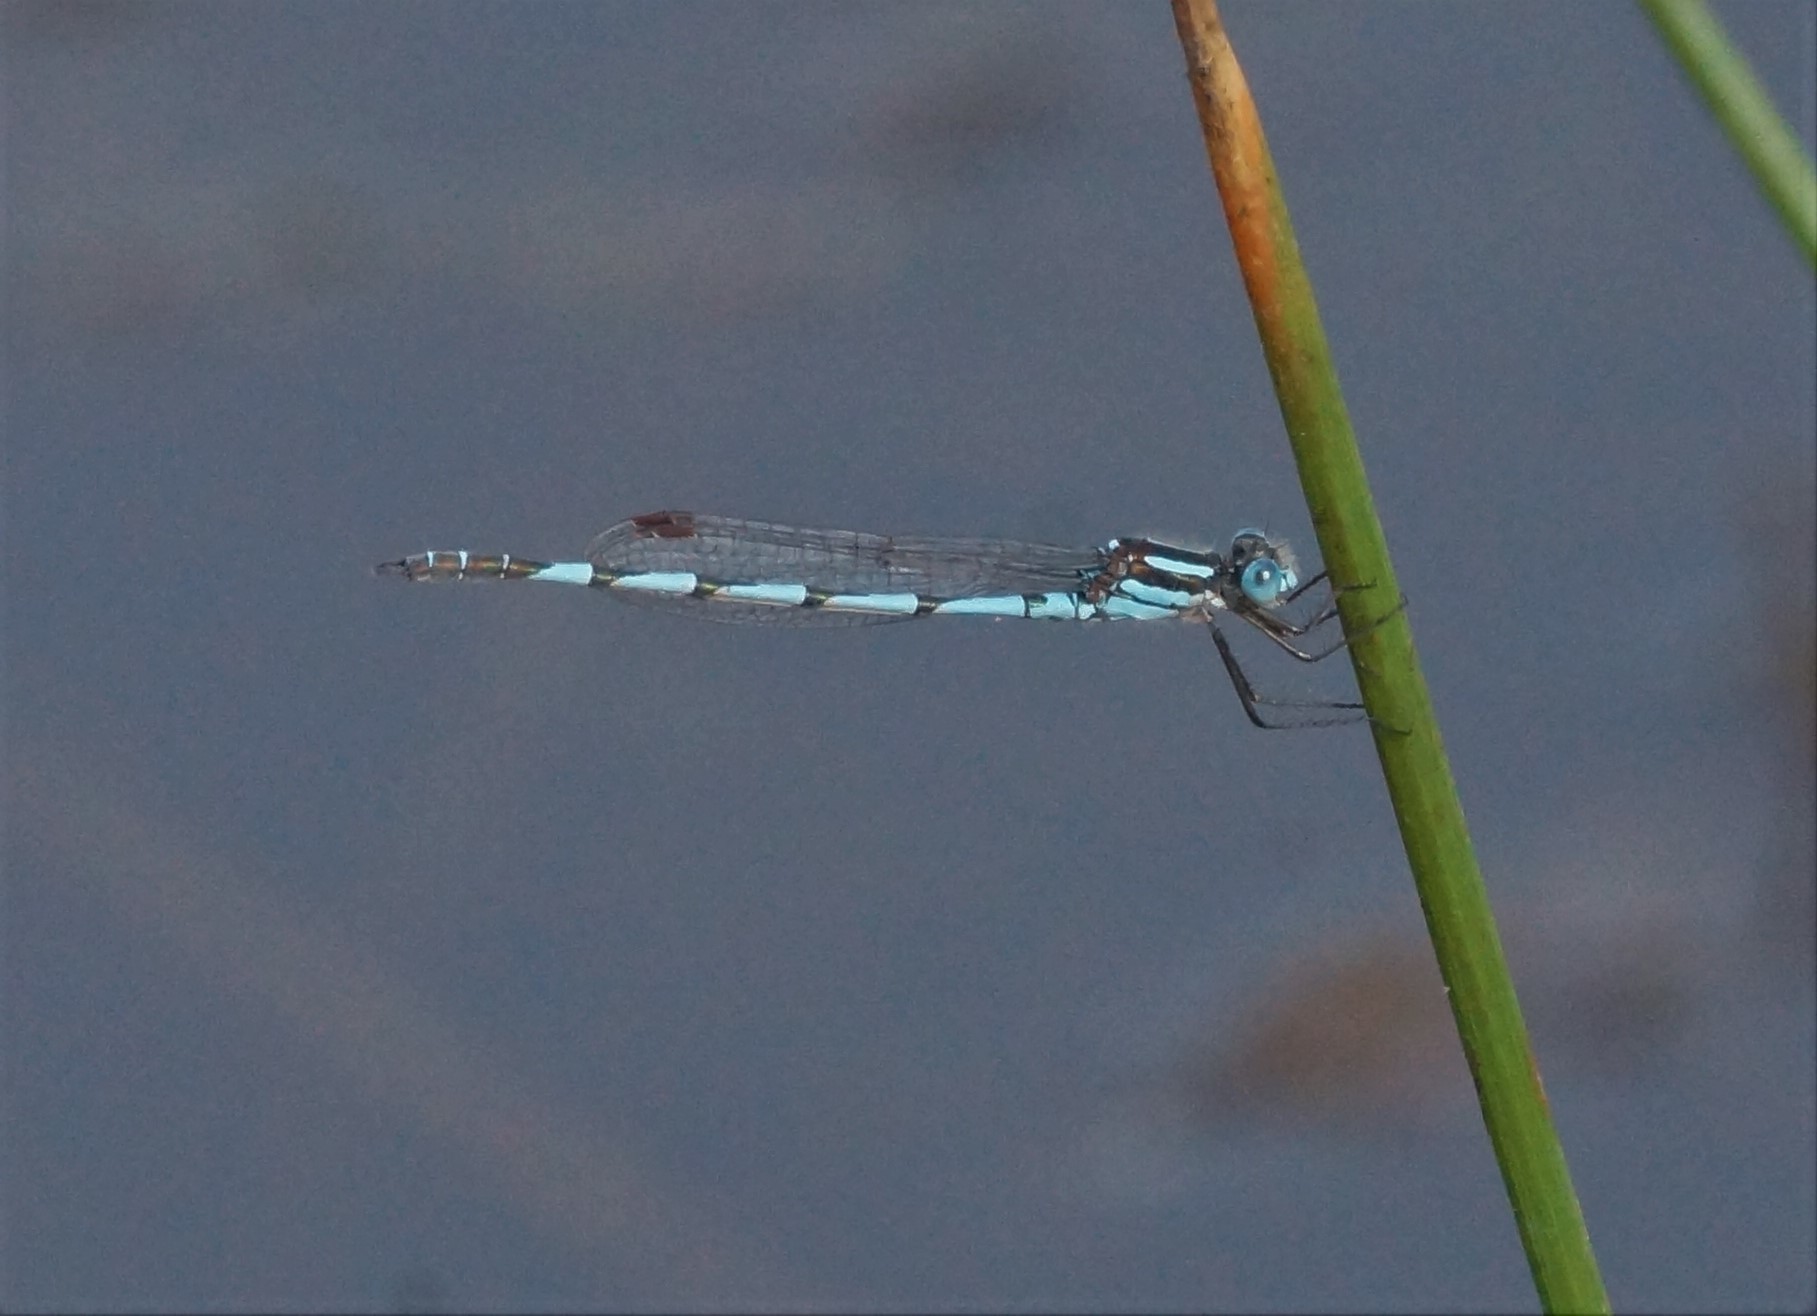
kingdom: Animalia
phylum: Arthropoda
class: Insecta
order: Odonata
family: Lestidae
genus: Austrolestes
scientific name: Austrolestes annulosus
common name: Blue ringtail
